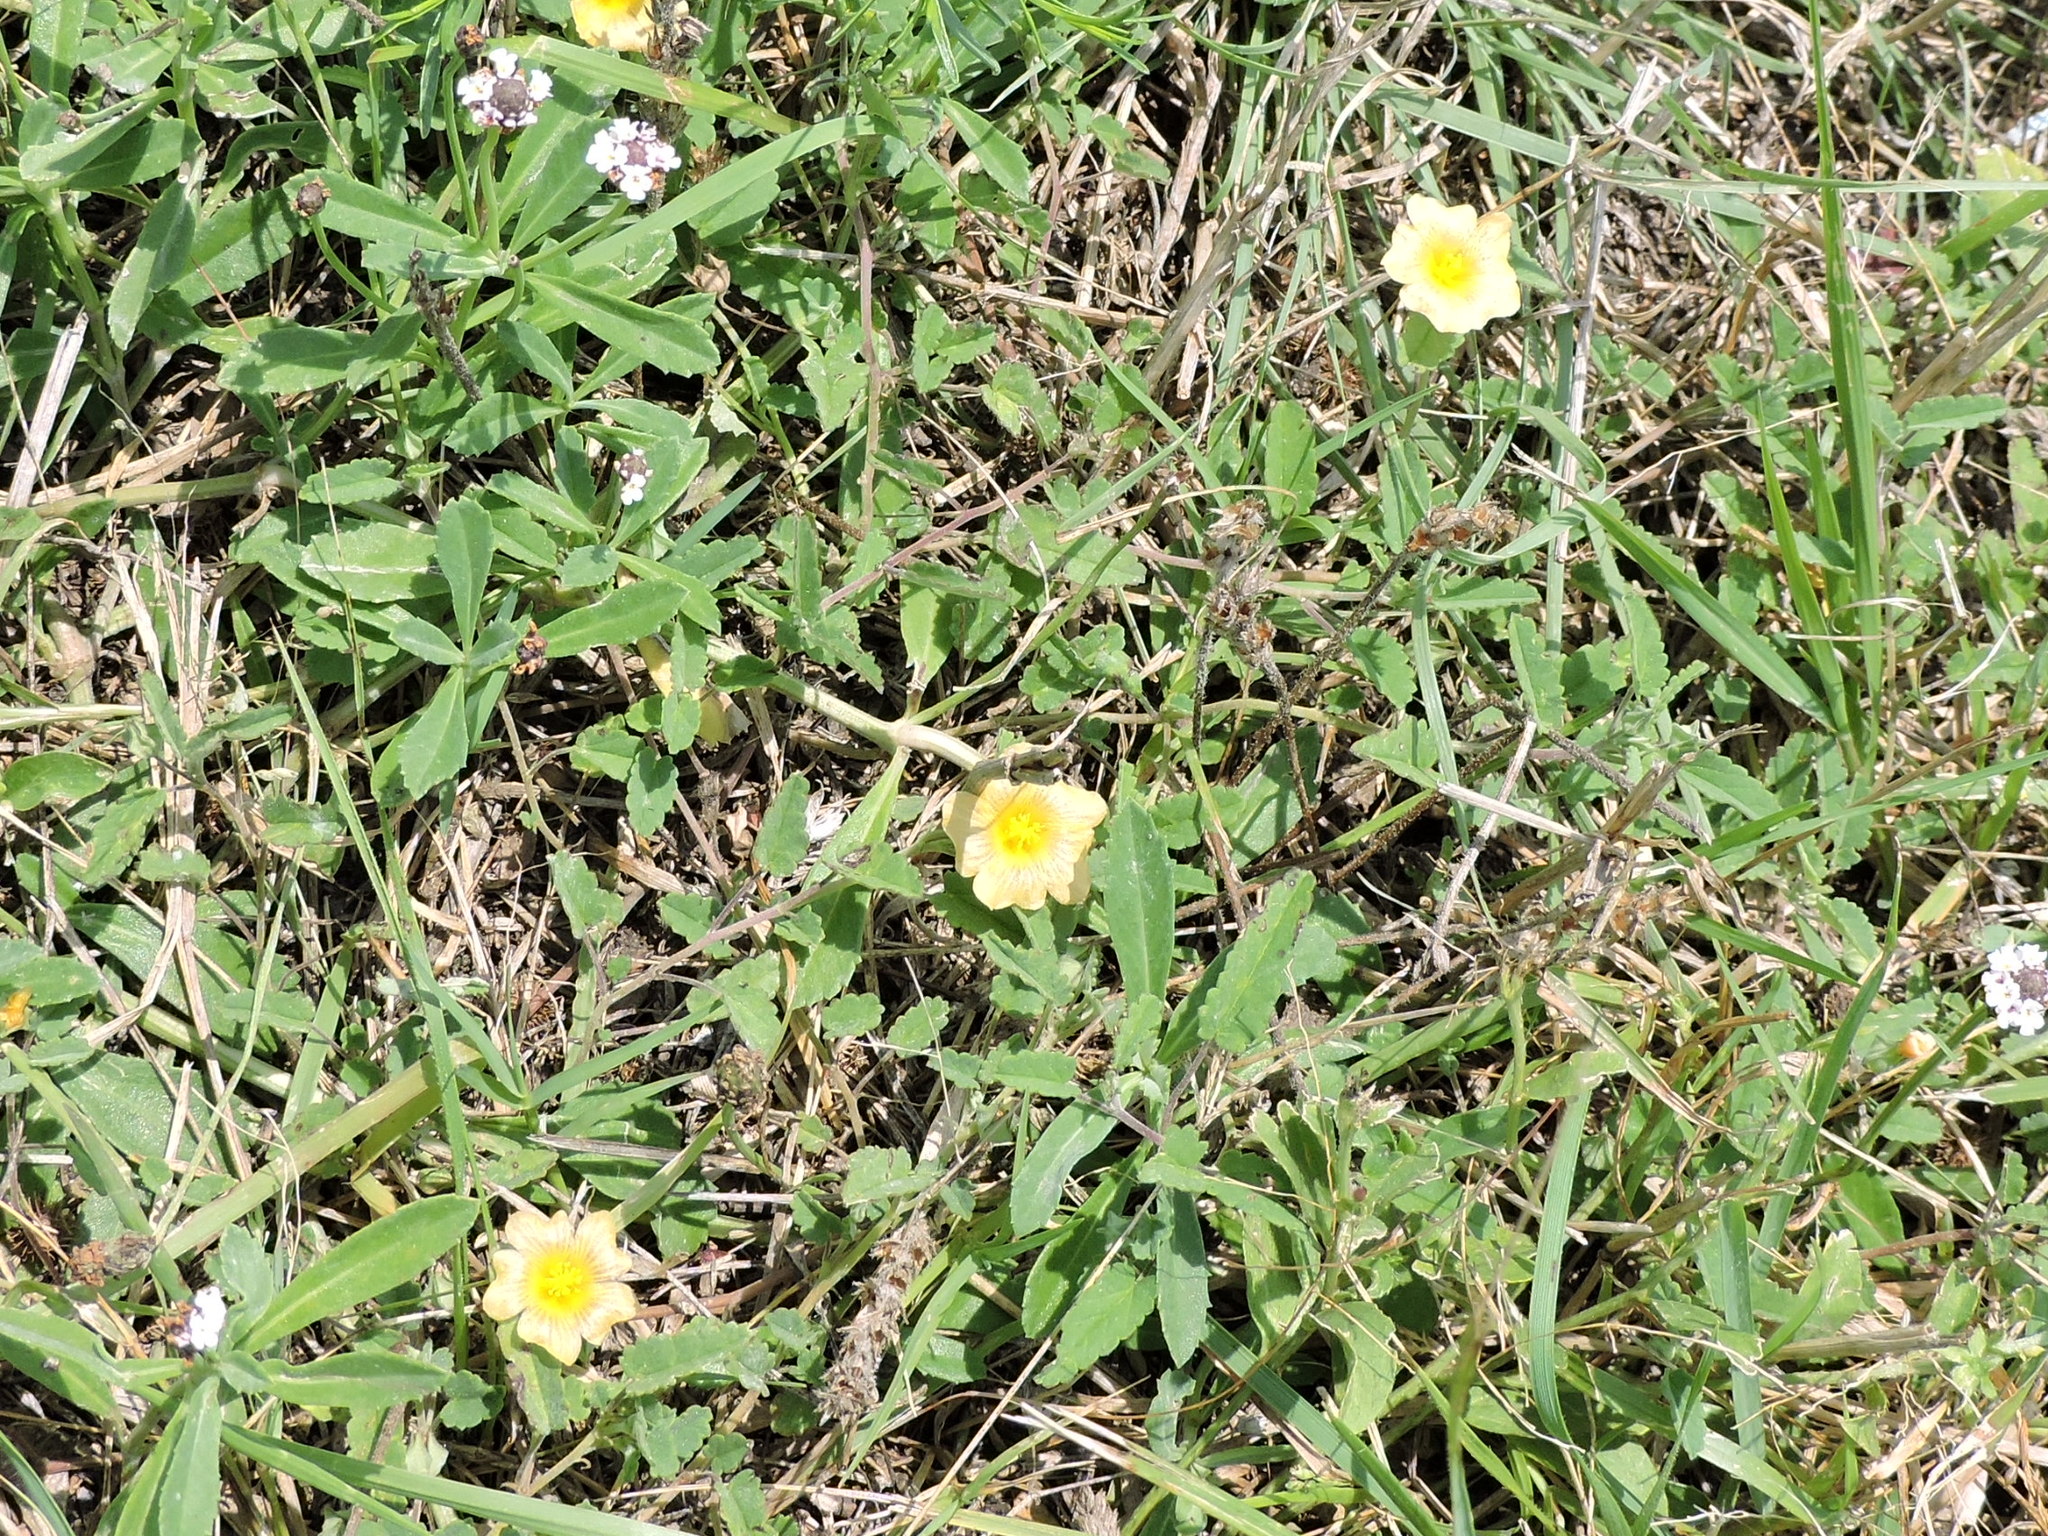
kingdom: Plantae
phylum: Tracheophyta
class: Magnoliopsida
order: Malvales
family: Malvaceae
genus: Sida
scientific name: Sida abutilifolia
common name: Spreading fanpetals
